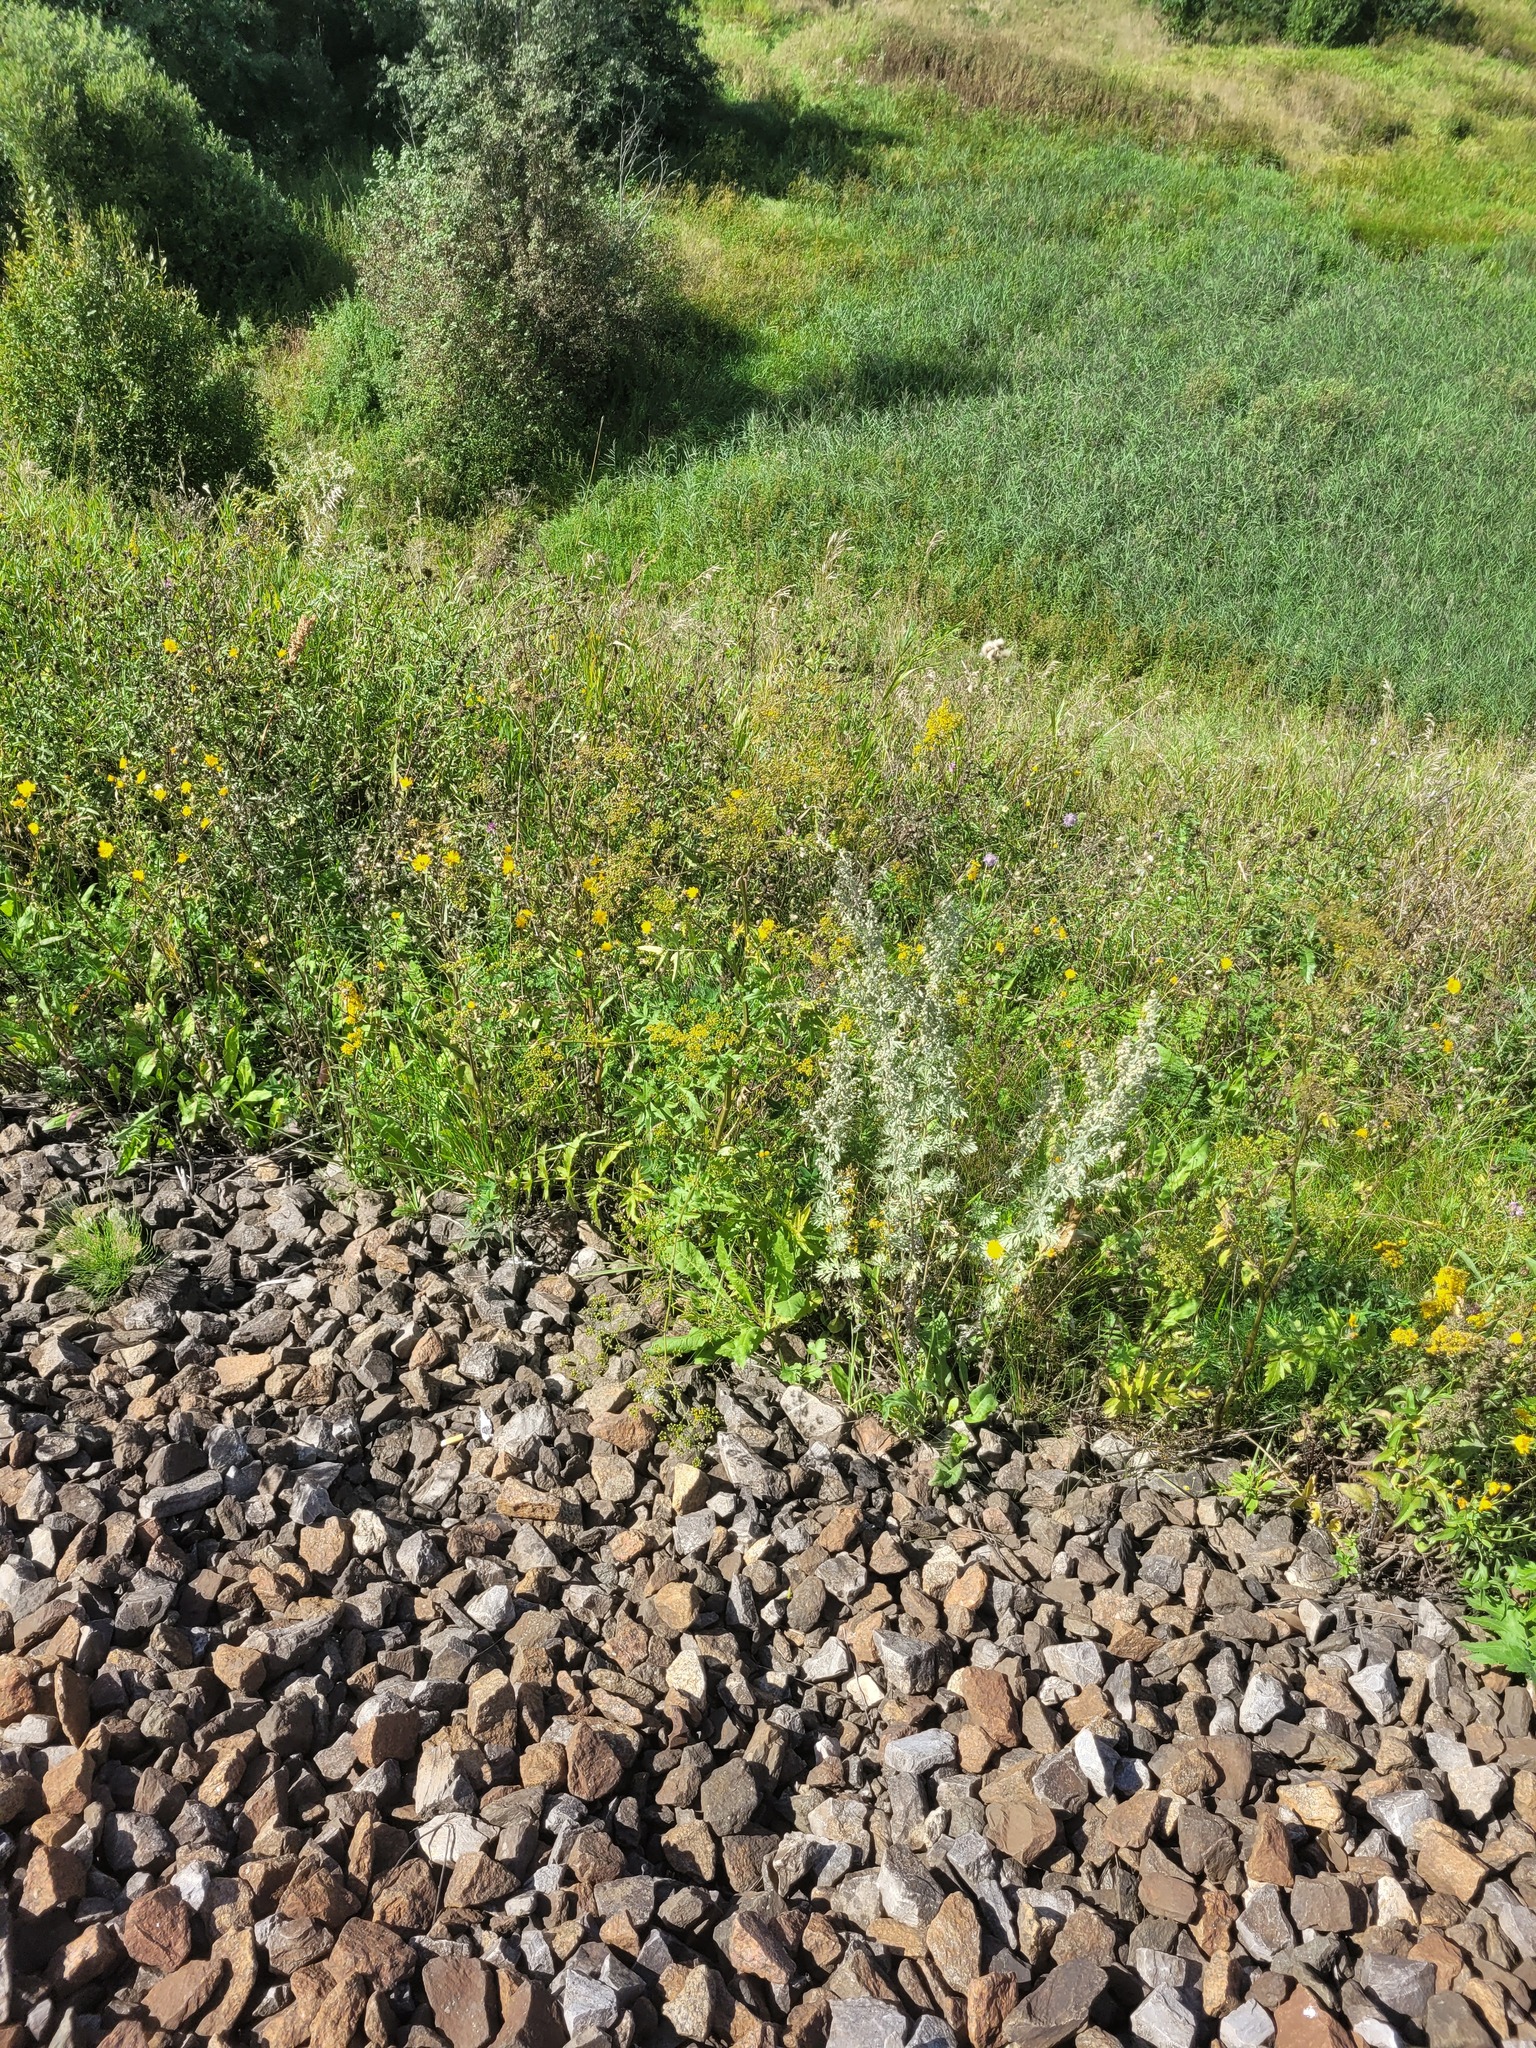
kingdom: Plantae
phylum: Tracheophyta
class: Magnoliopsida
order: Apiales
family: Apiaceae
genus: Pastinaca
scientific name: Pastinaca sativa
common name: Wild parsnip
